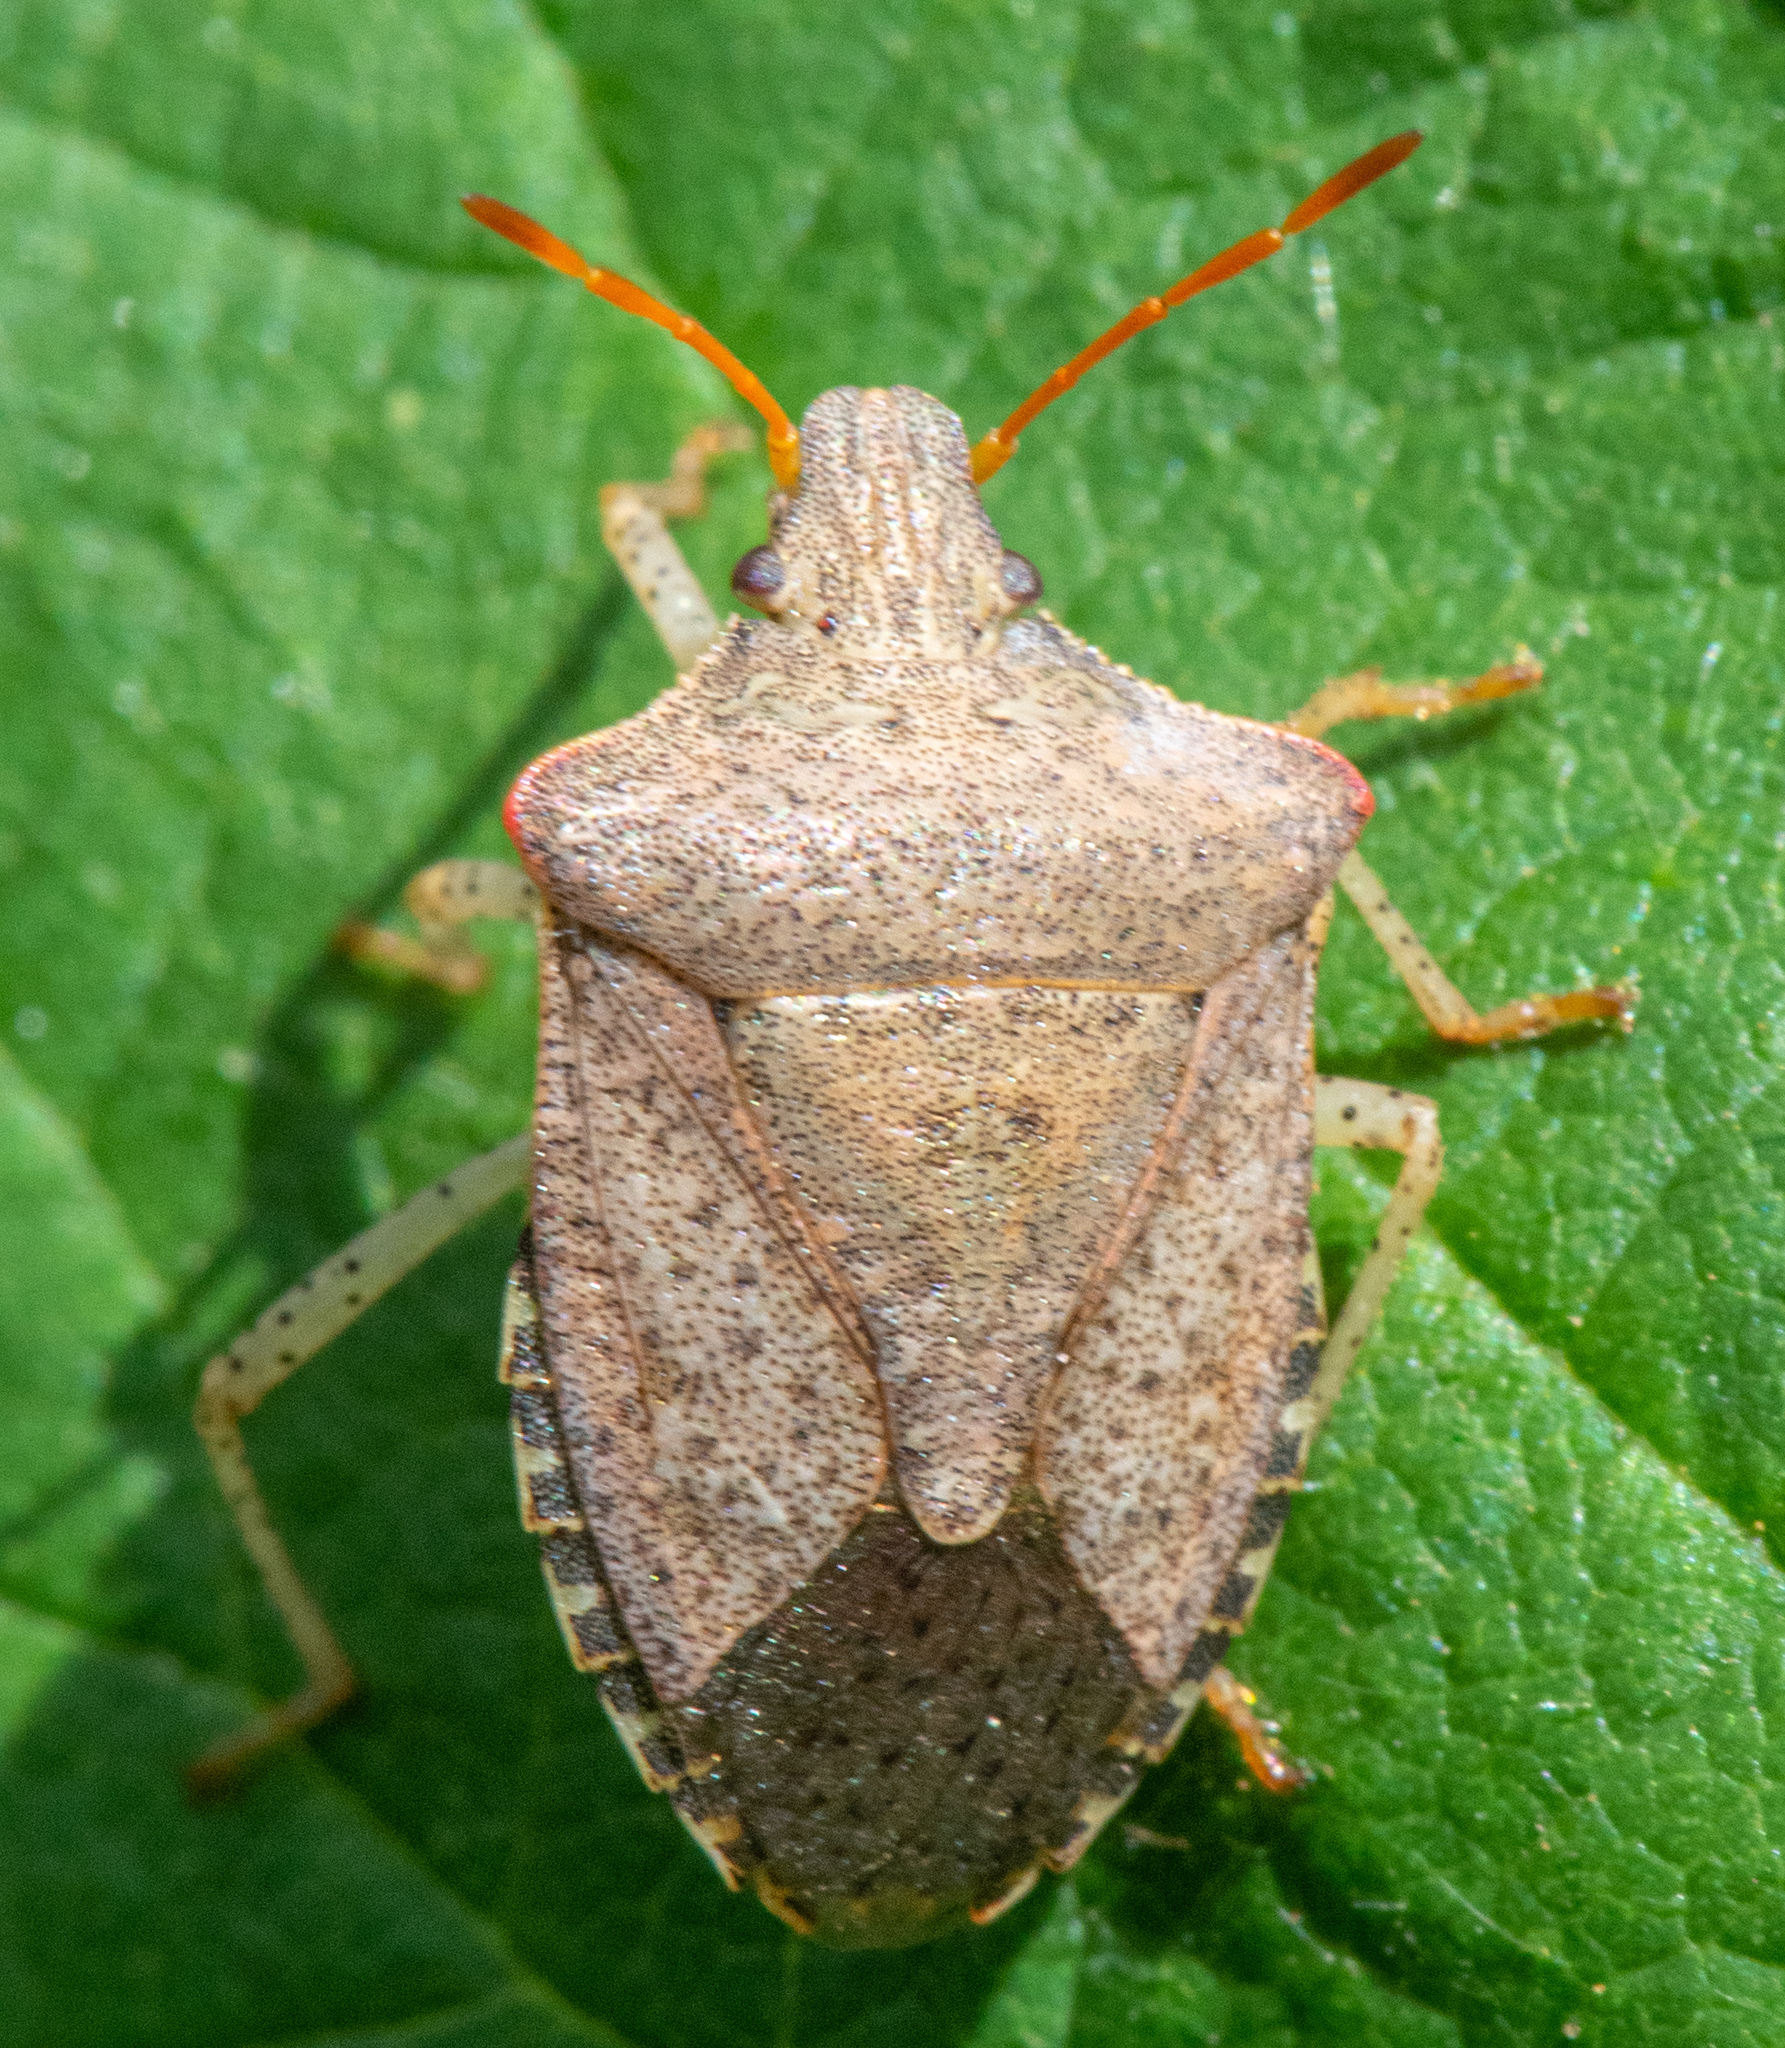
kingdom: Animalia
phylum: Arthropoda
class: Insecta
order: Hemiptera
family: Pentatomidae
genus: Euschistus
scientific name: Euschistus conspersus
